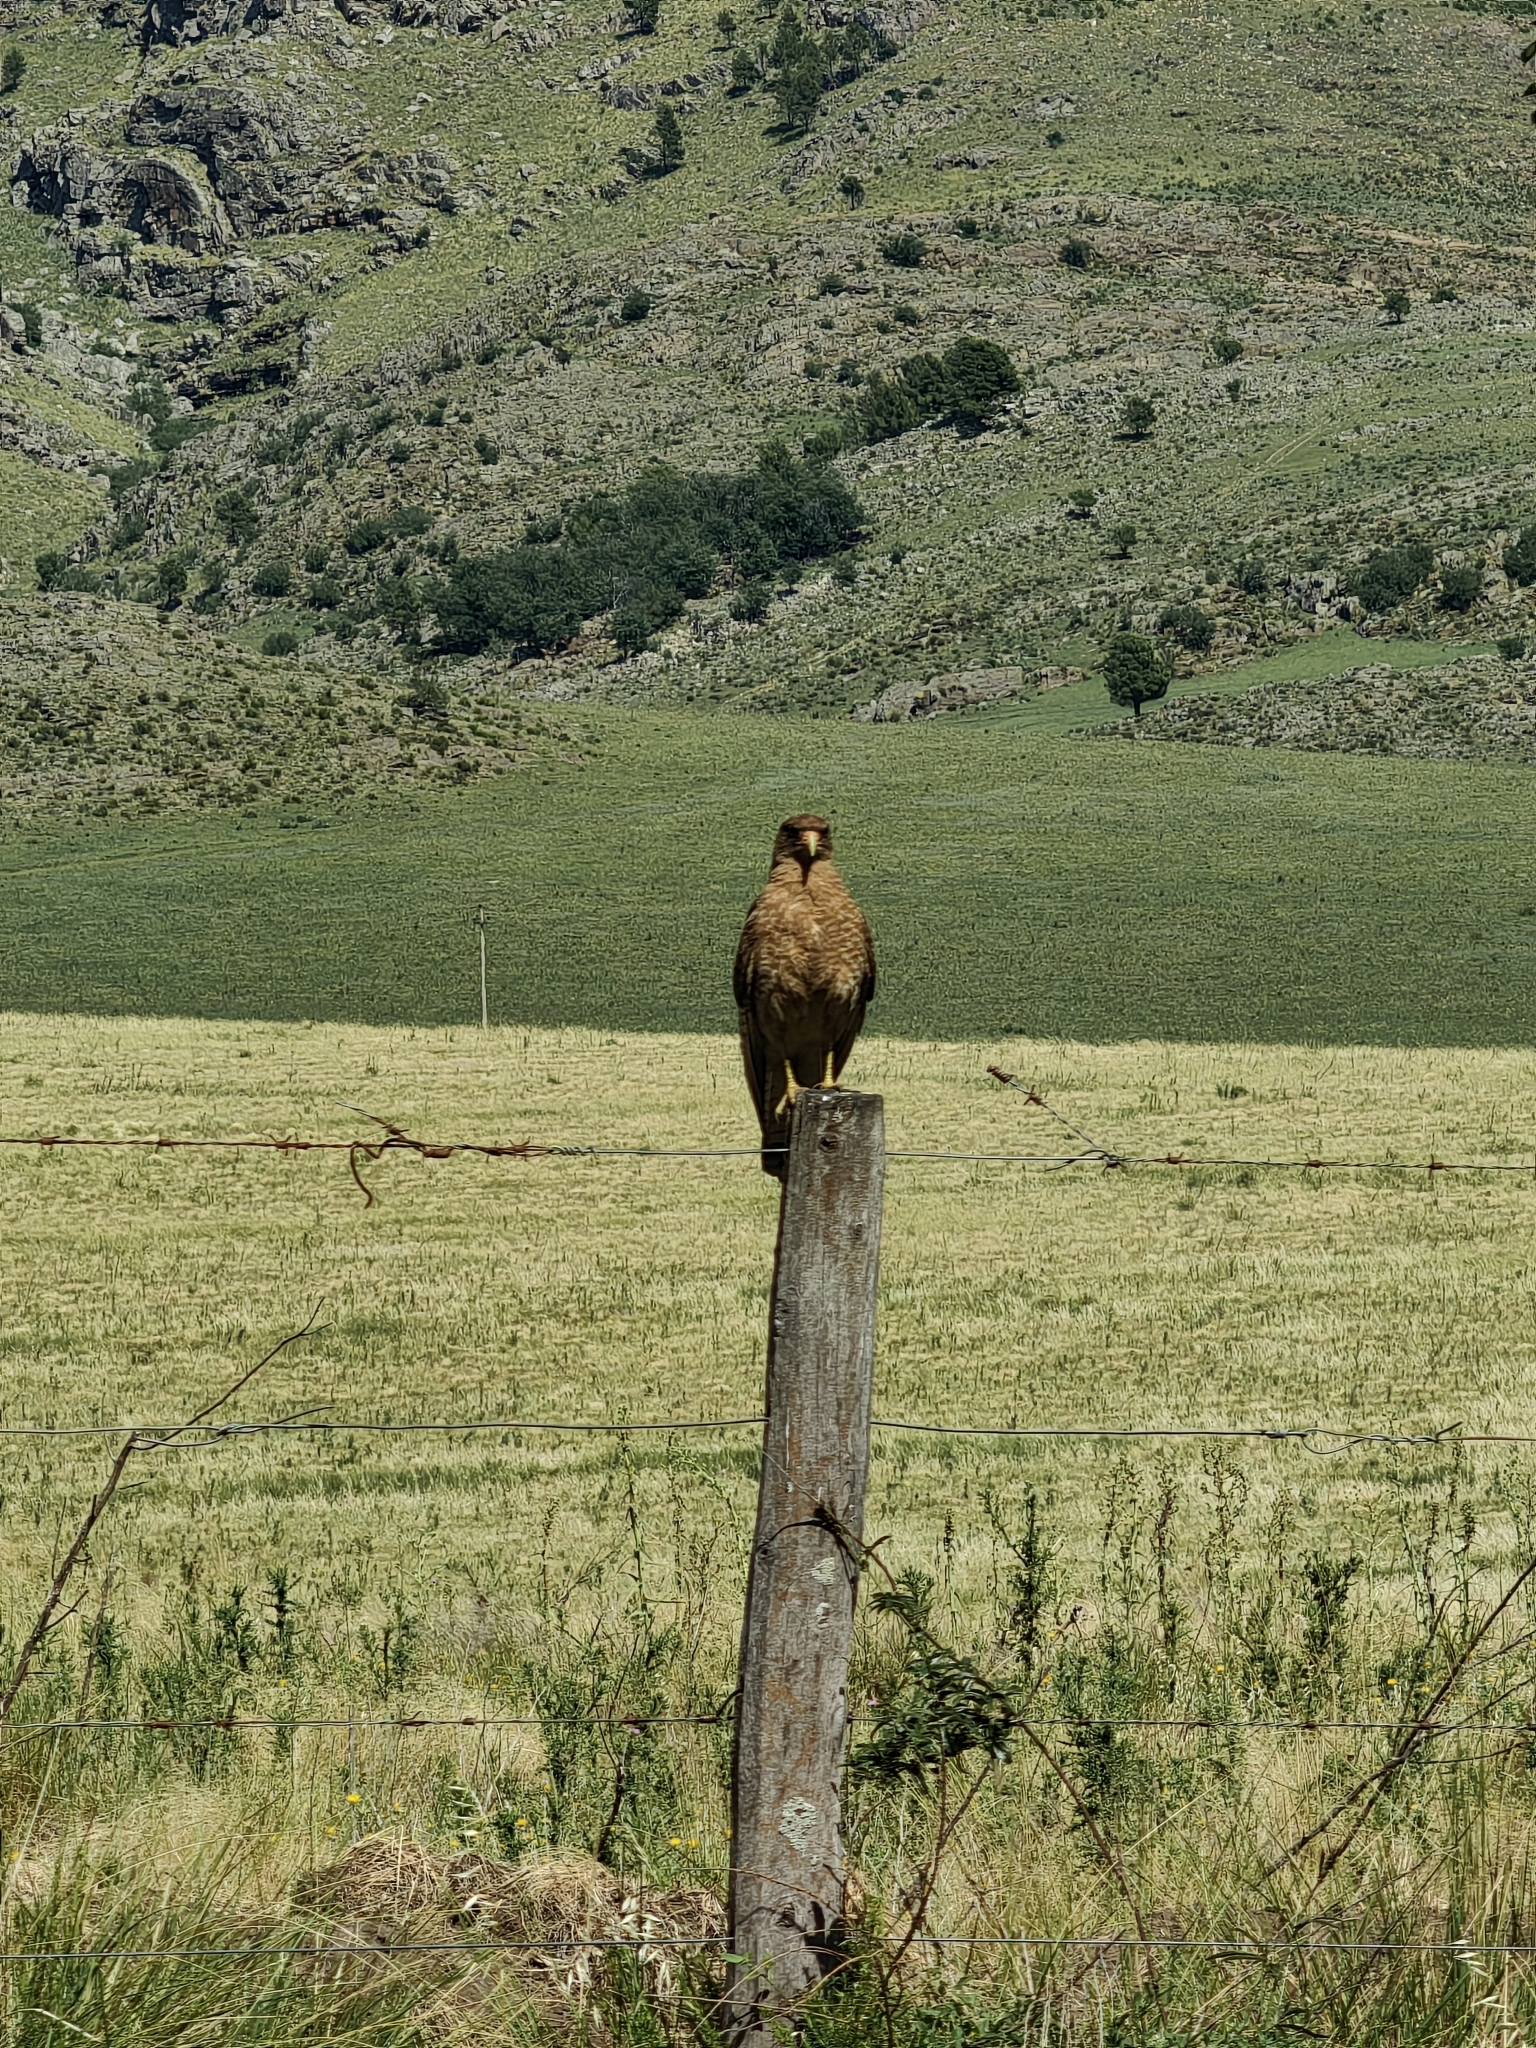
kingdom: Animalia
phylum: Chordata
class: Aves
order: Falconiformes
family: Falconidae
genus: Daptrius
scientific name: Daptrius
